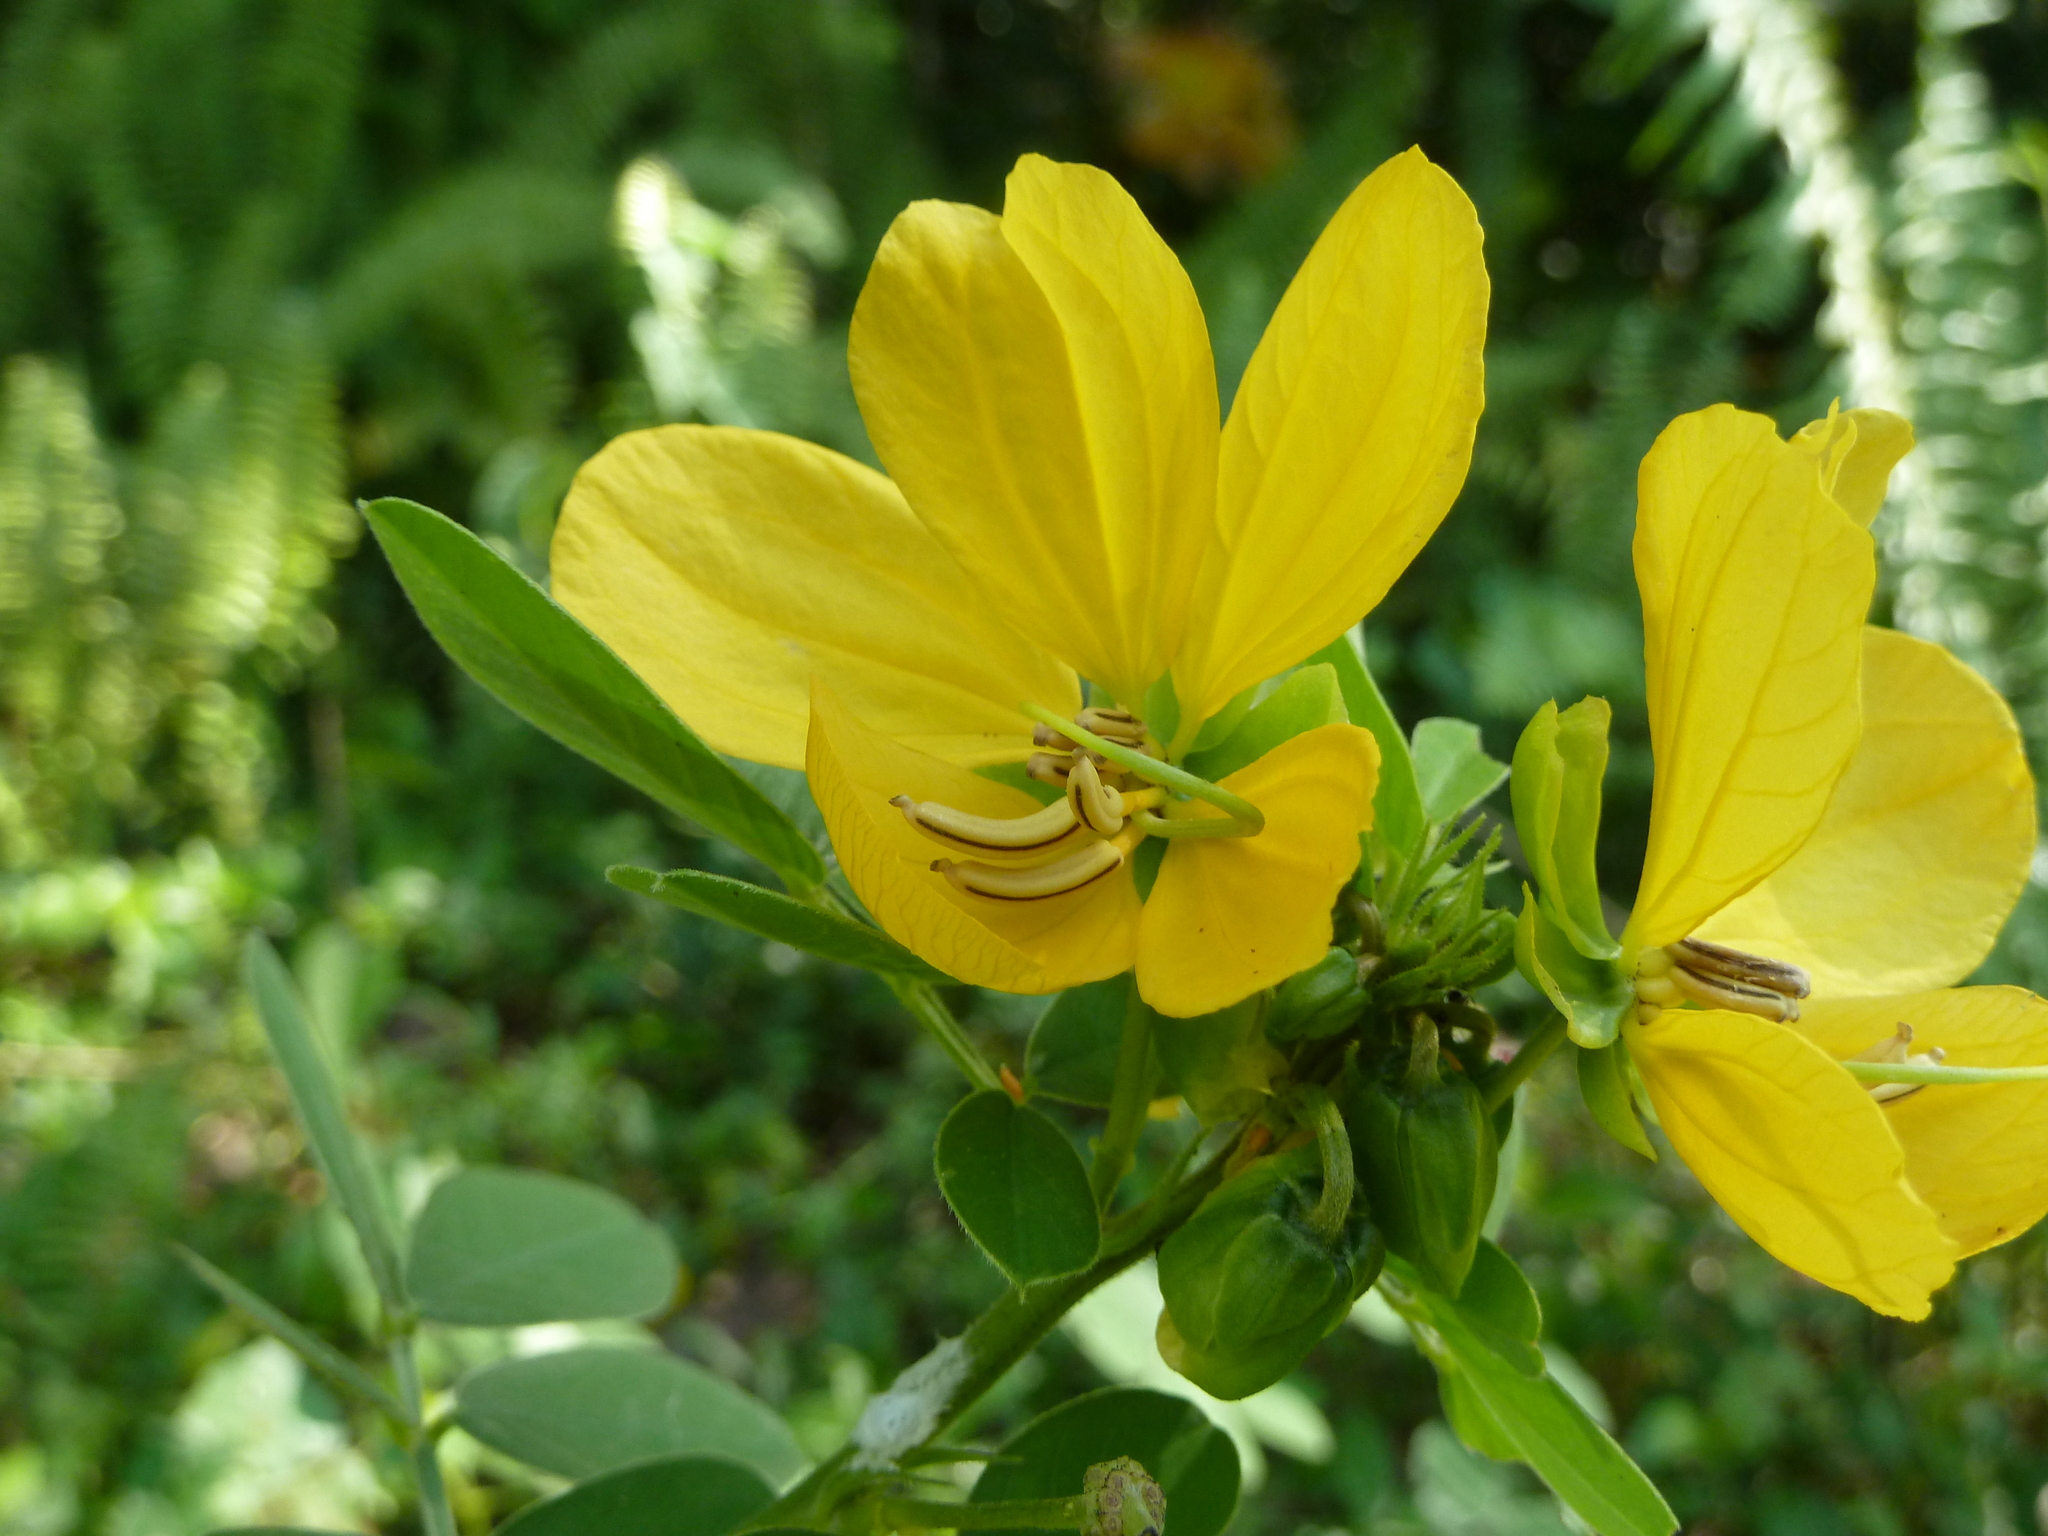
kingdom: Plantae
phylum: Tracheophyta
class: Magnoliopsida
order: Fabales
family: Fabaceae
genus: Senna
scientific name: Senna cobanensis
